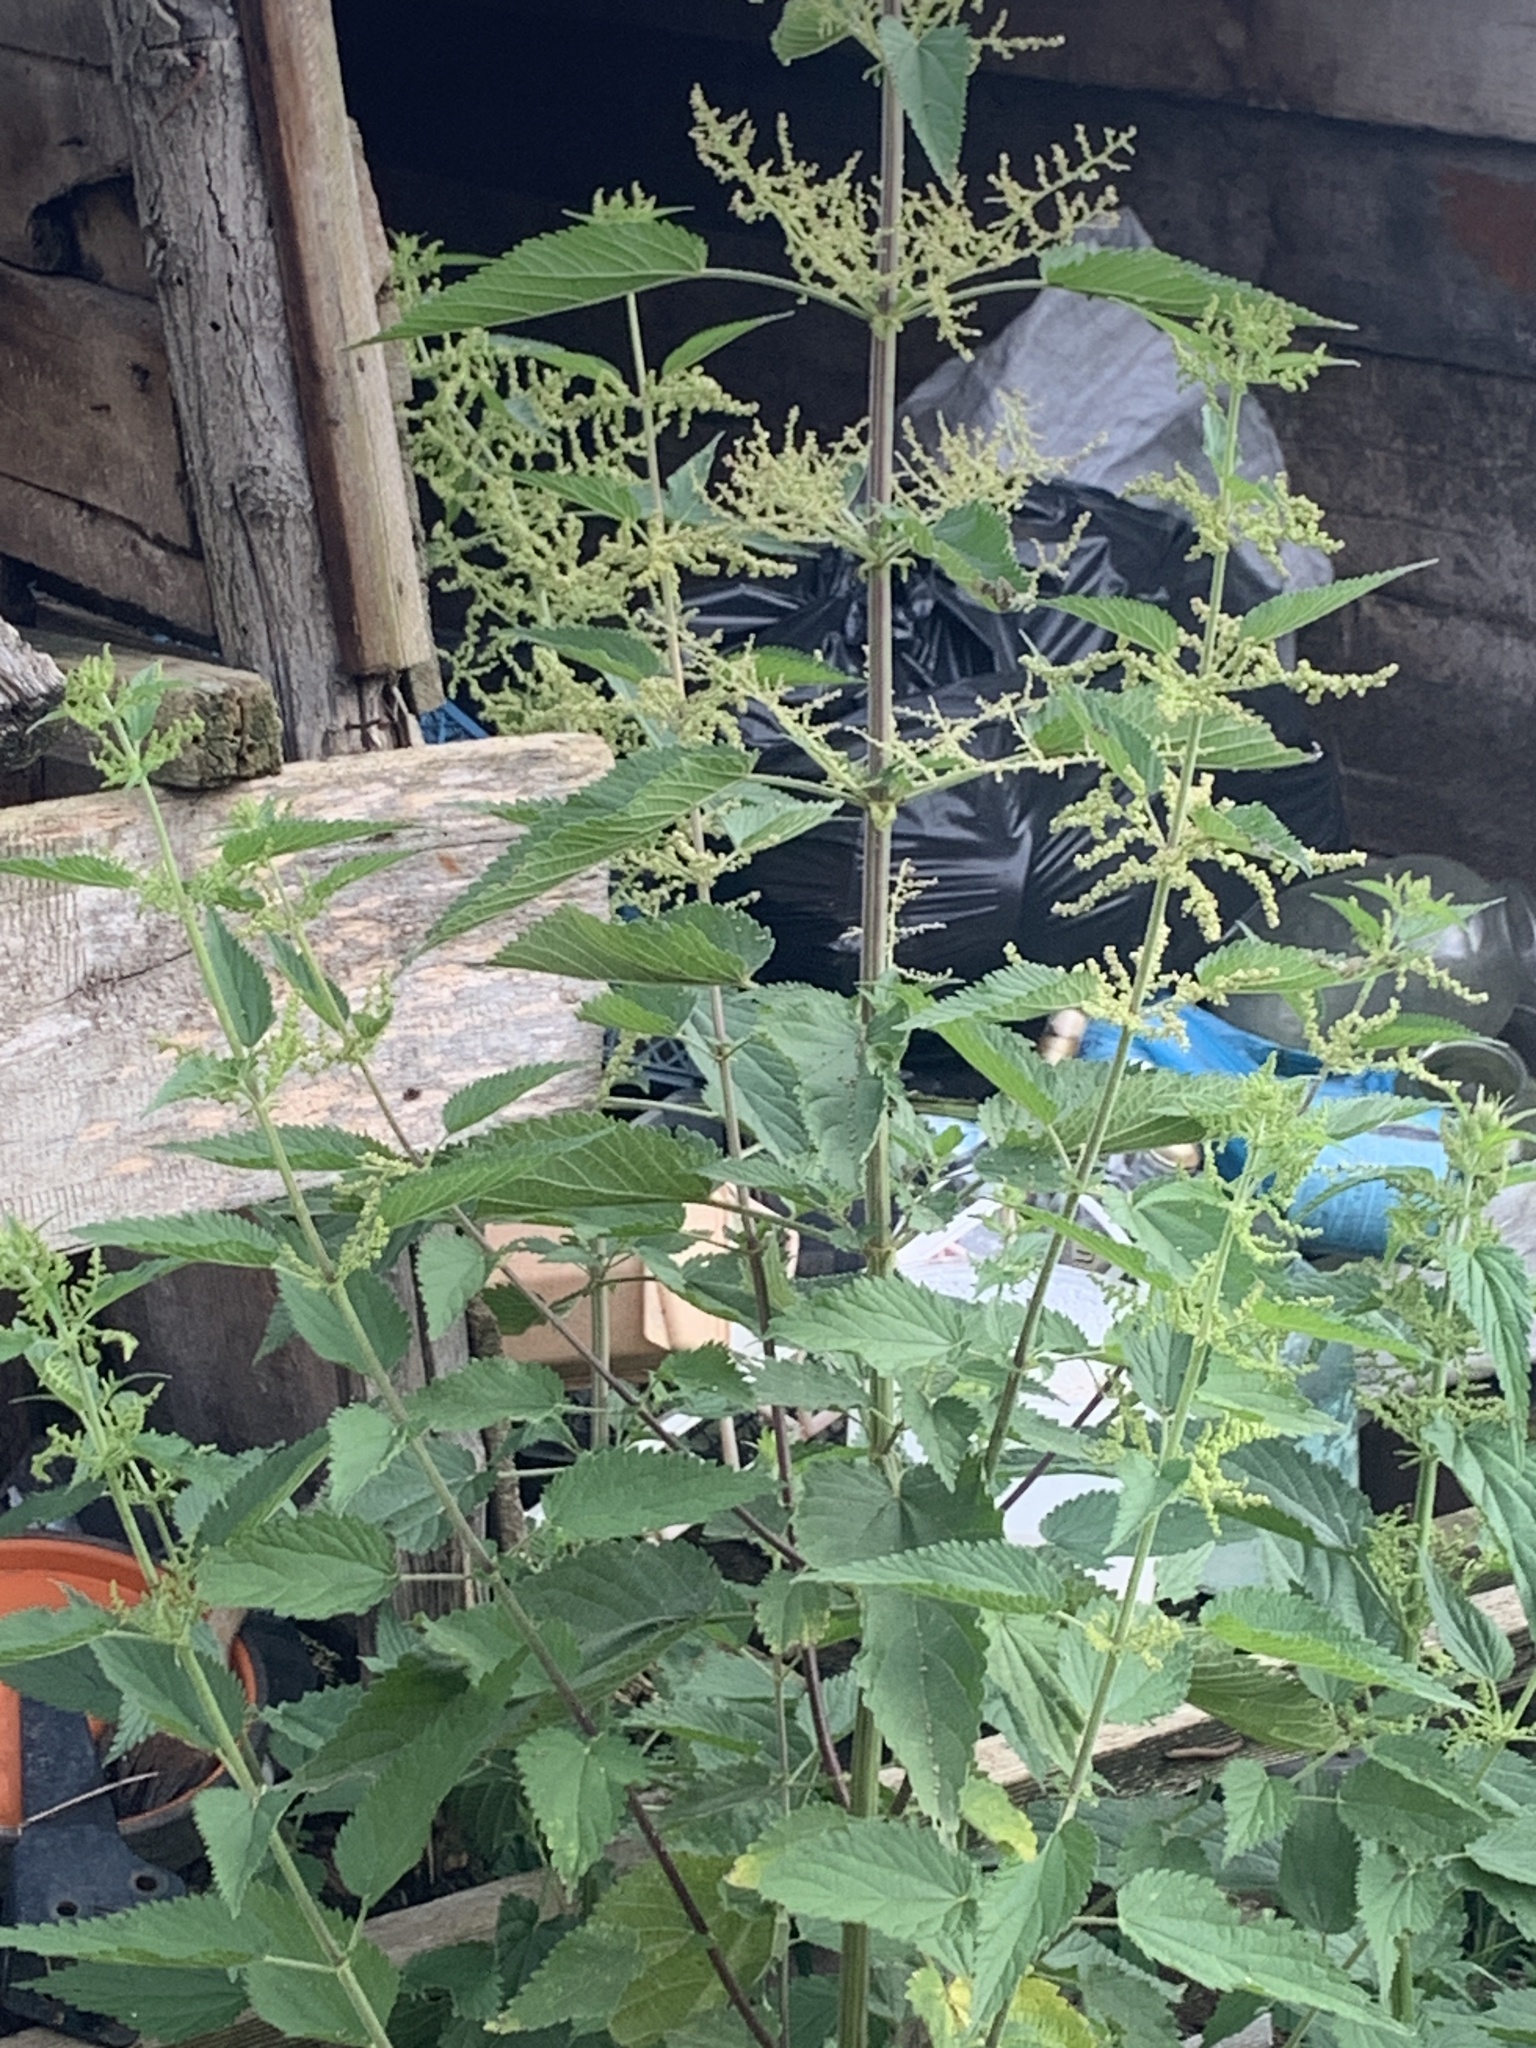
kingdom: Plantae
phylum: Tracheophyta
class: Magnoliopsida
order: Rosales
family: Urticaceae
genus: Urtica
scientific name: Urtica dioica
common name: Common nettle
